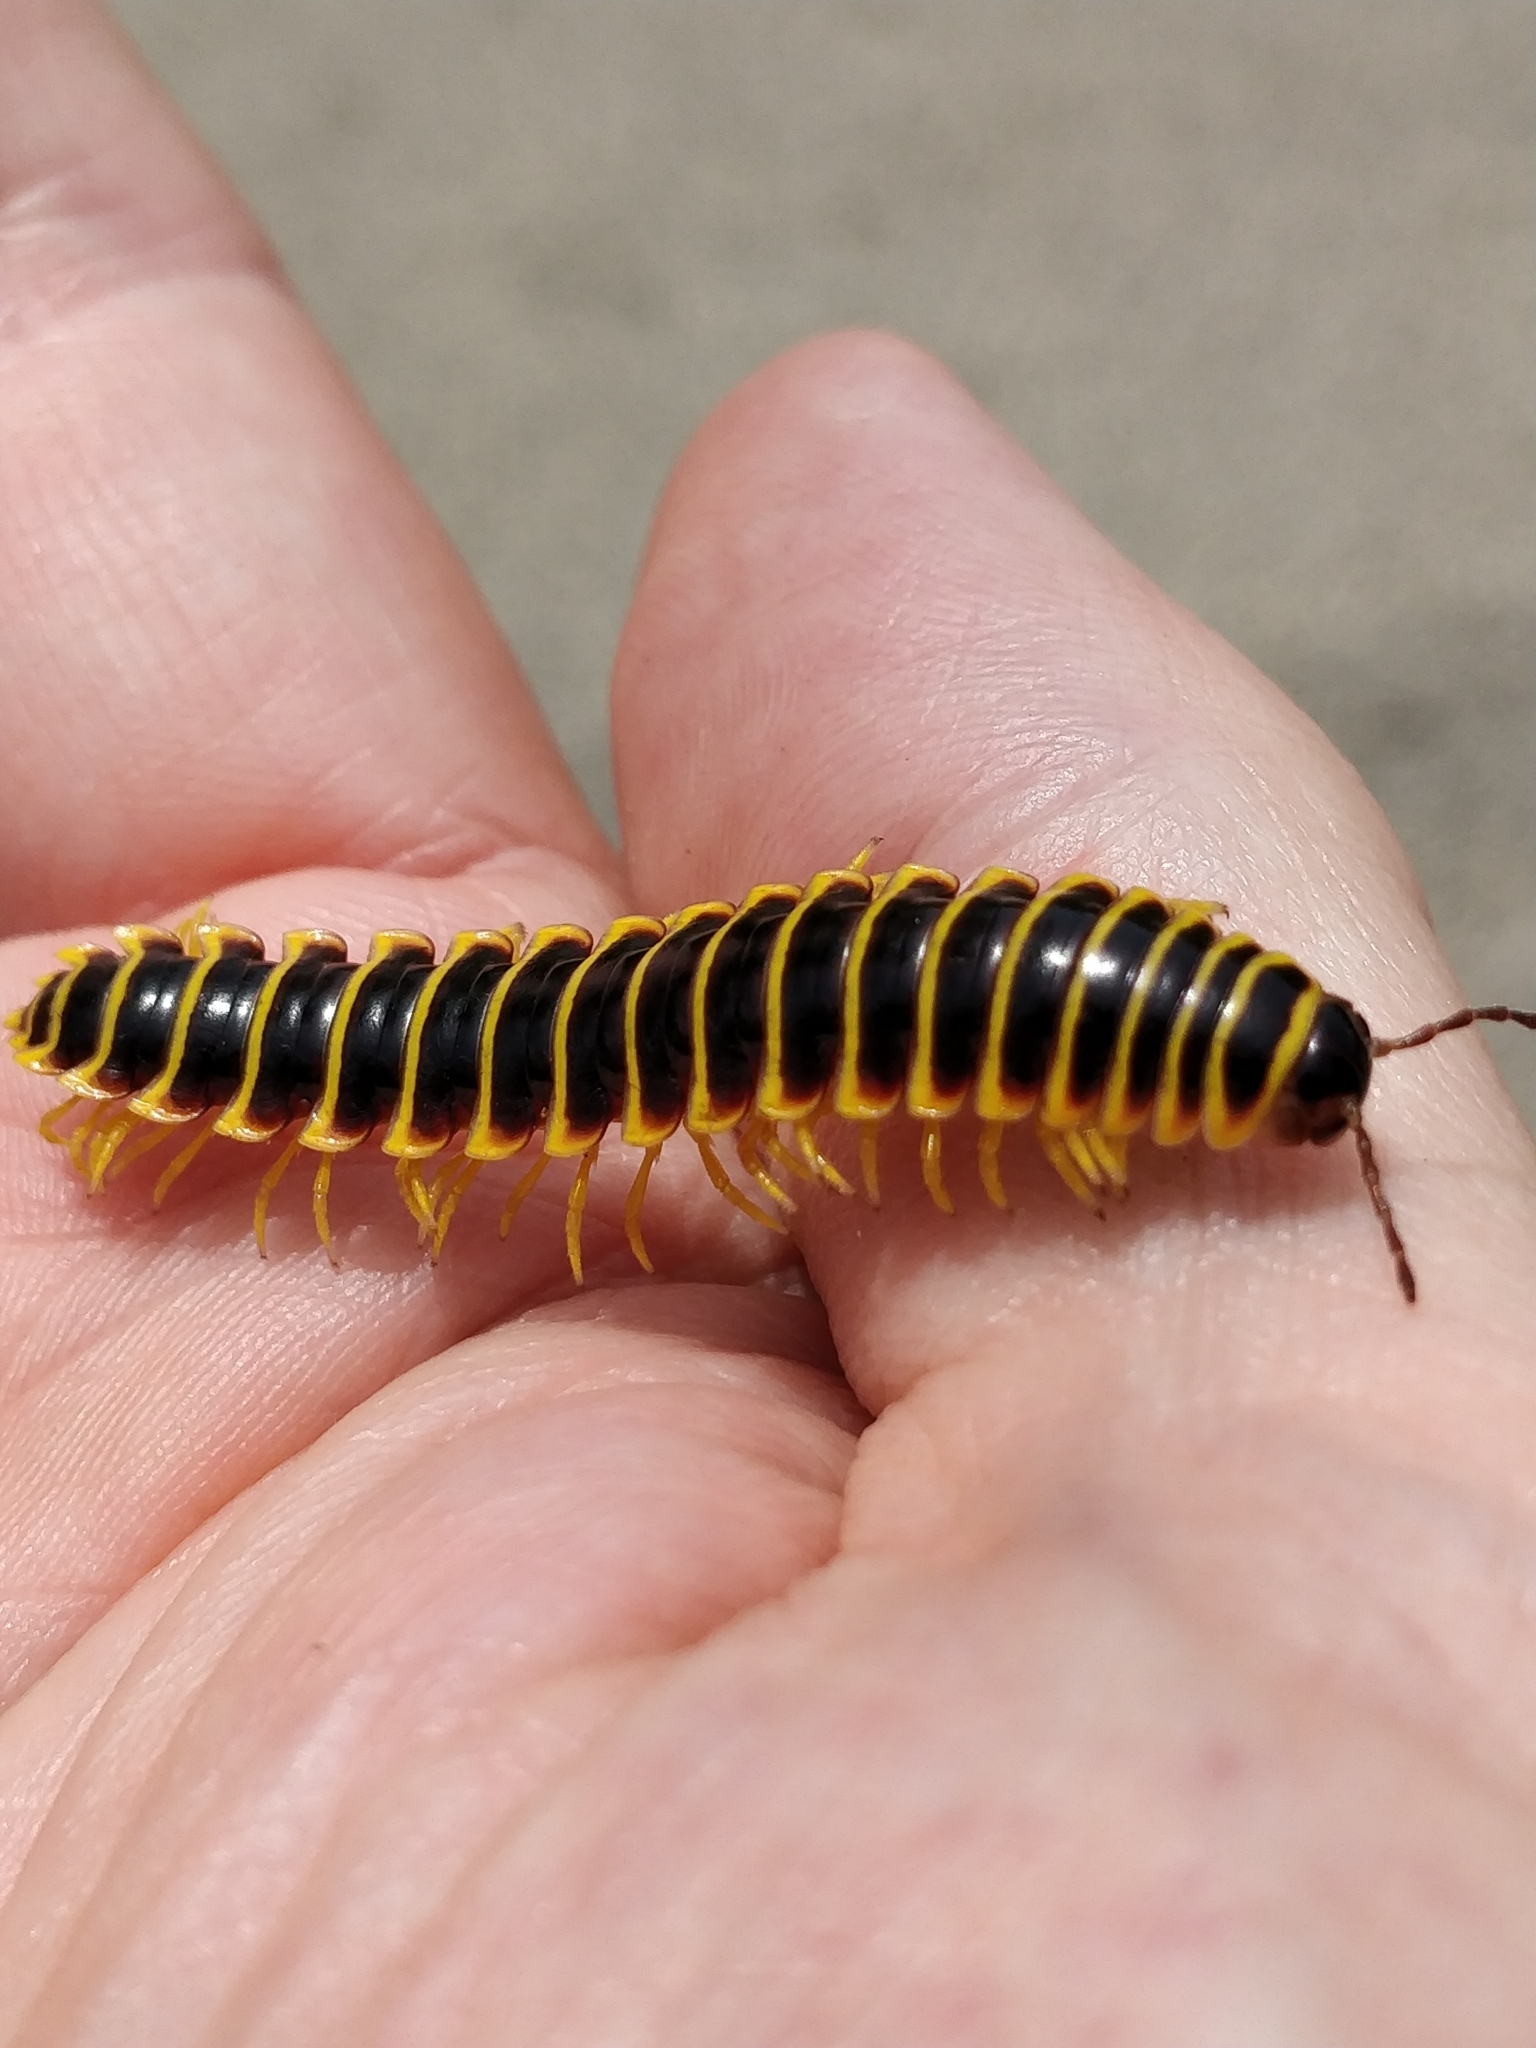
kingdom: Animalia
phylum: Arthropoda
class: Diplopoda
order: Polydesmida
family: Xystodesmidae
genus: Apheloria
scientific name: Apheloria virginiensis
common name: Black-and-gold flat millipede
